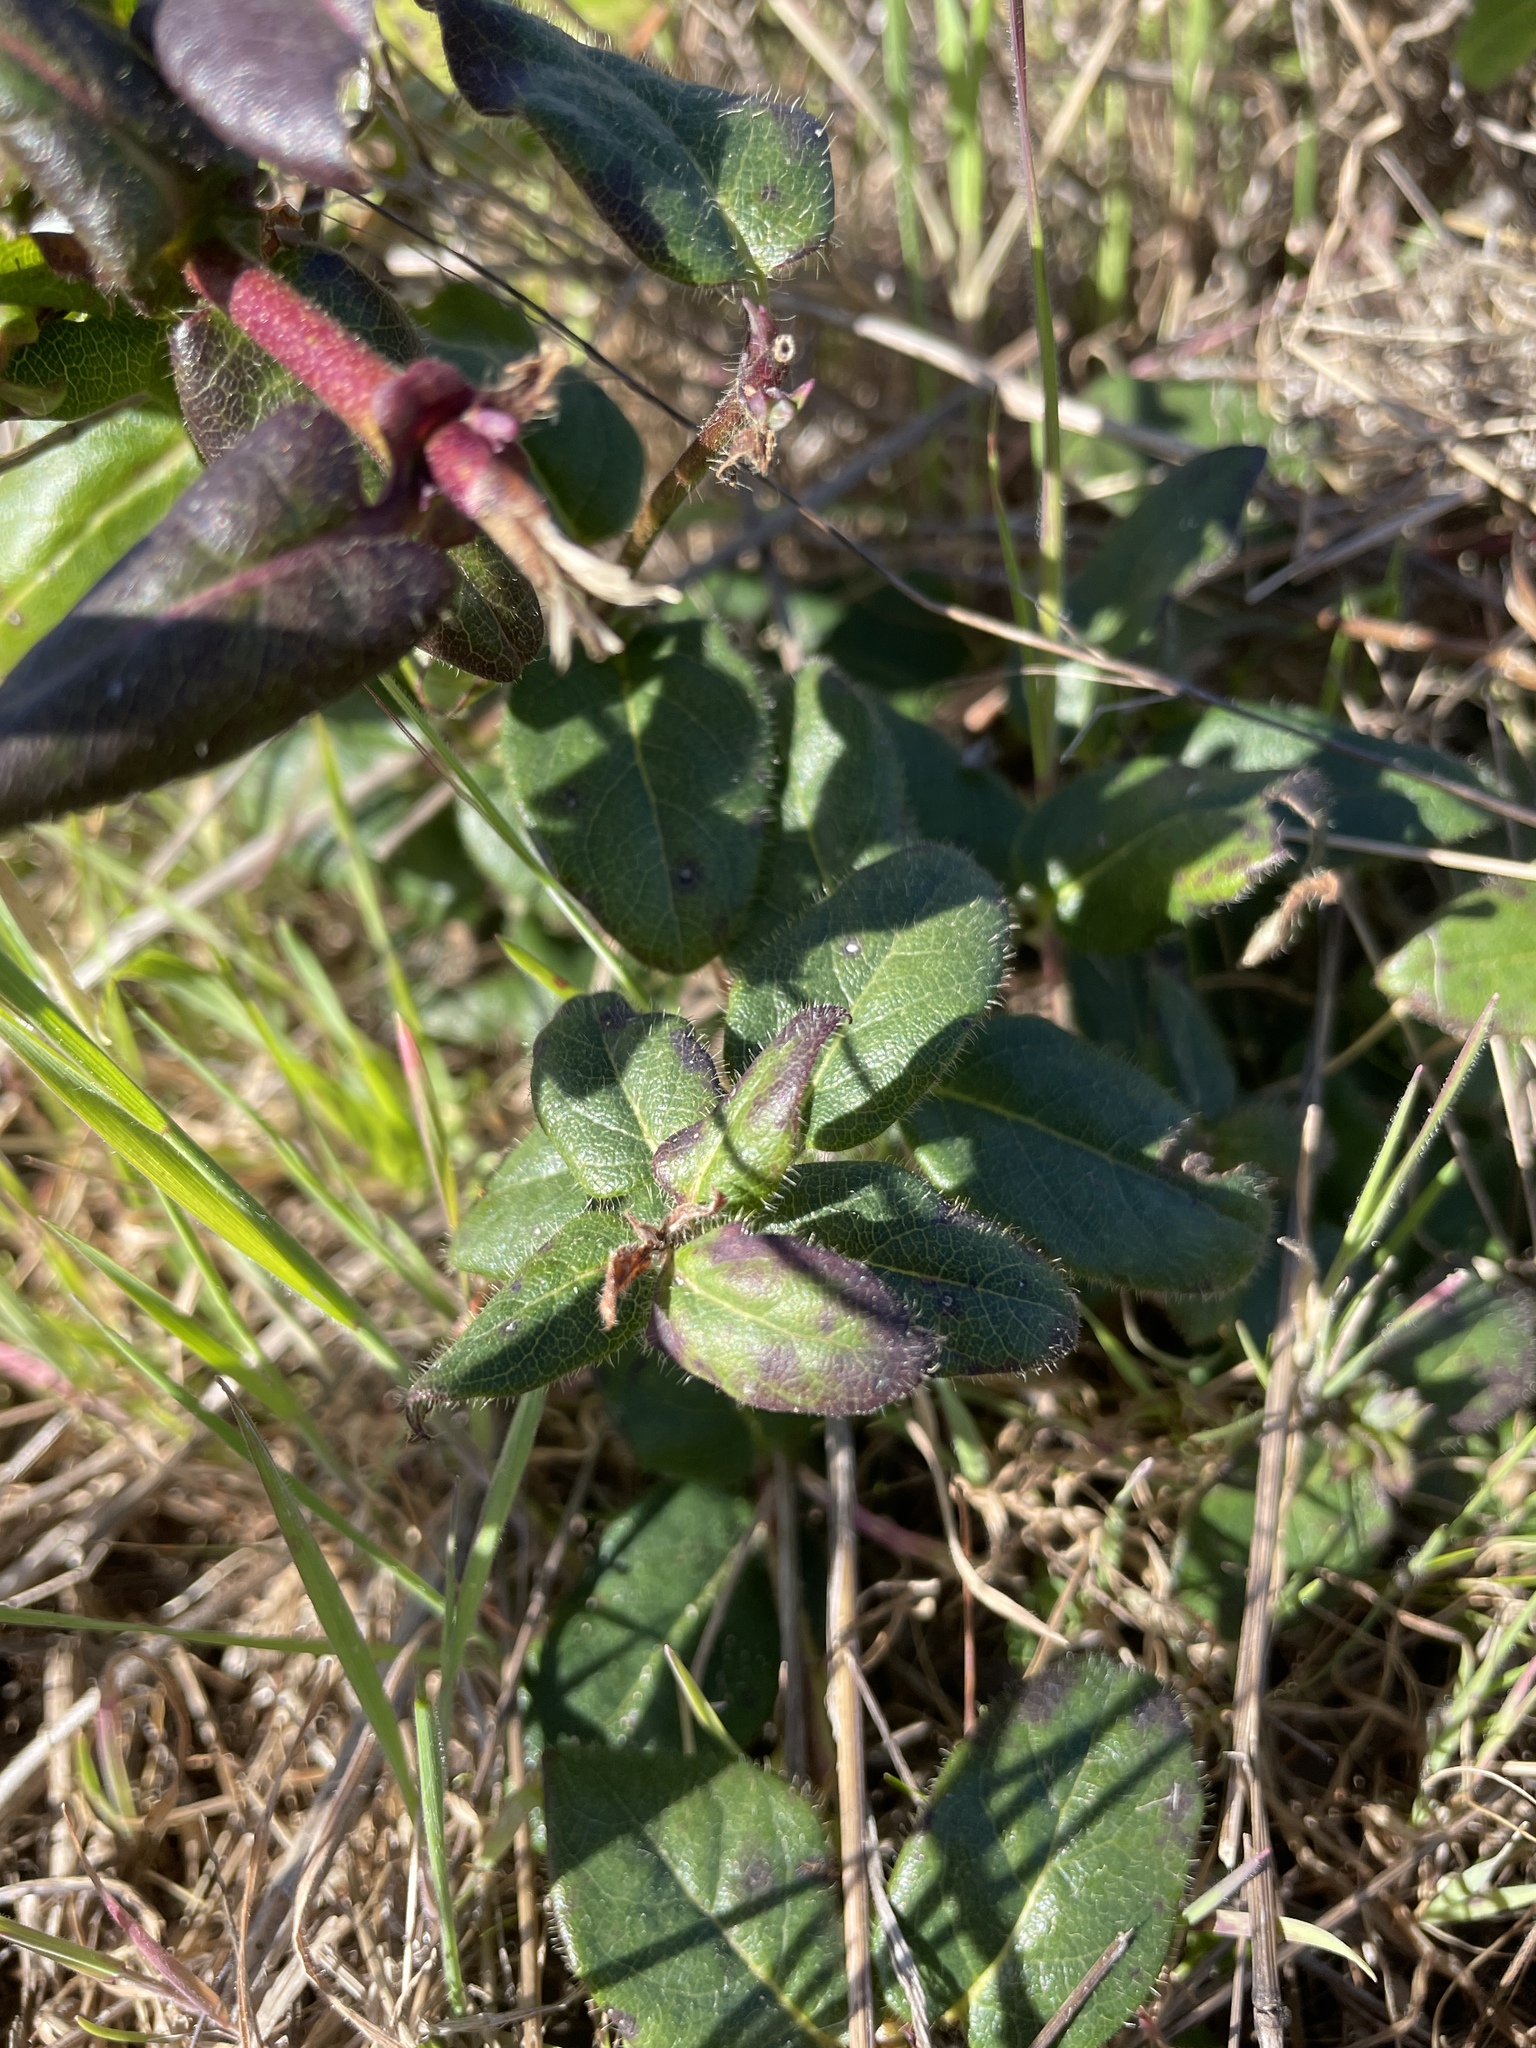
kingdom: Plantae
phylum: Tracheophyta
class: Magnoliopsida
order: Dipsacales
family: Caprifoliaceae
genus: Lonicera
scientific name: Lonicera hispidula
